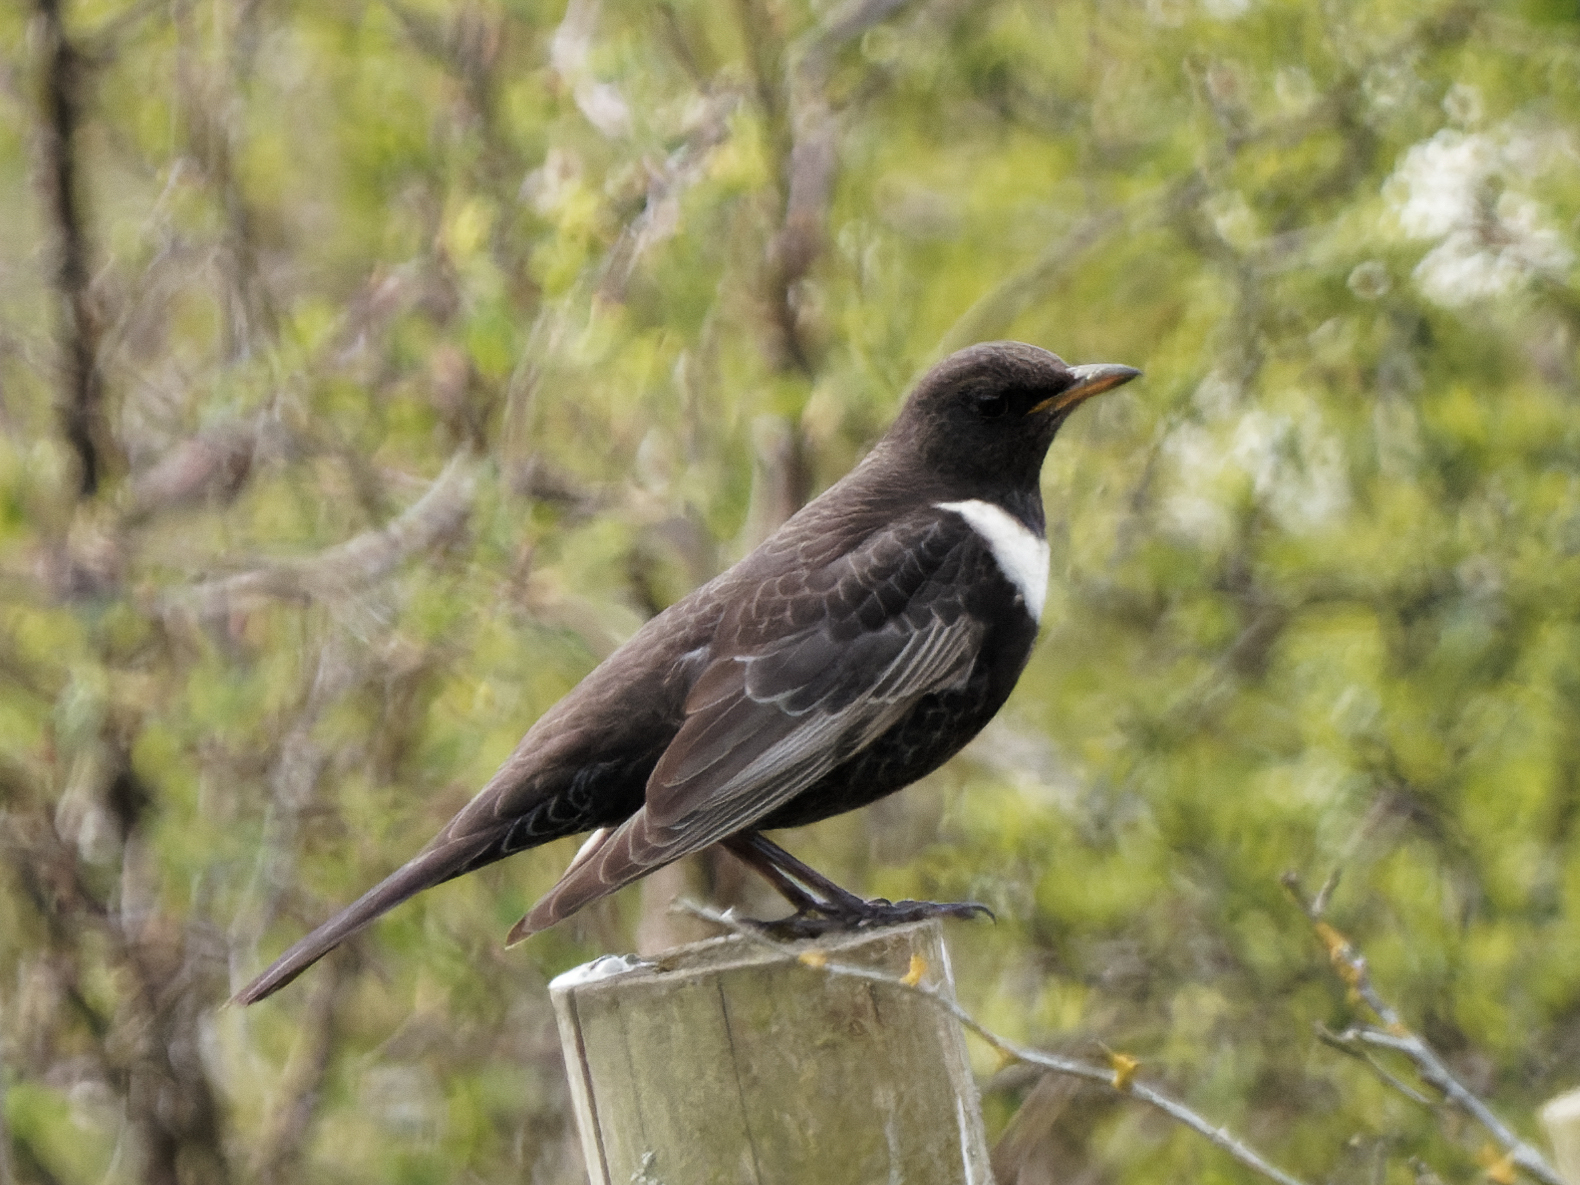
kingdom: Animalia
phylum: Chordata
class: Aves
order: Passeriformes
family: Turdidae
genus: Turdus
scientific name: Turdus torquatus
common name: Ring ouzel
